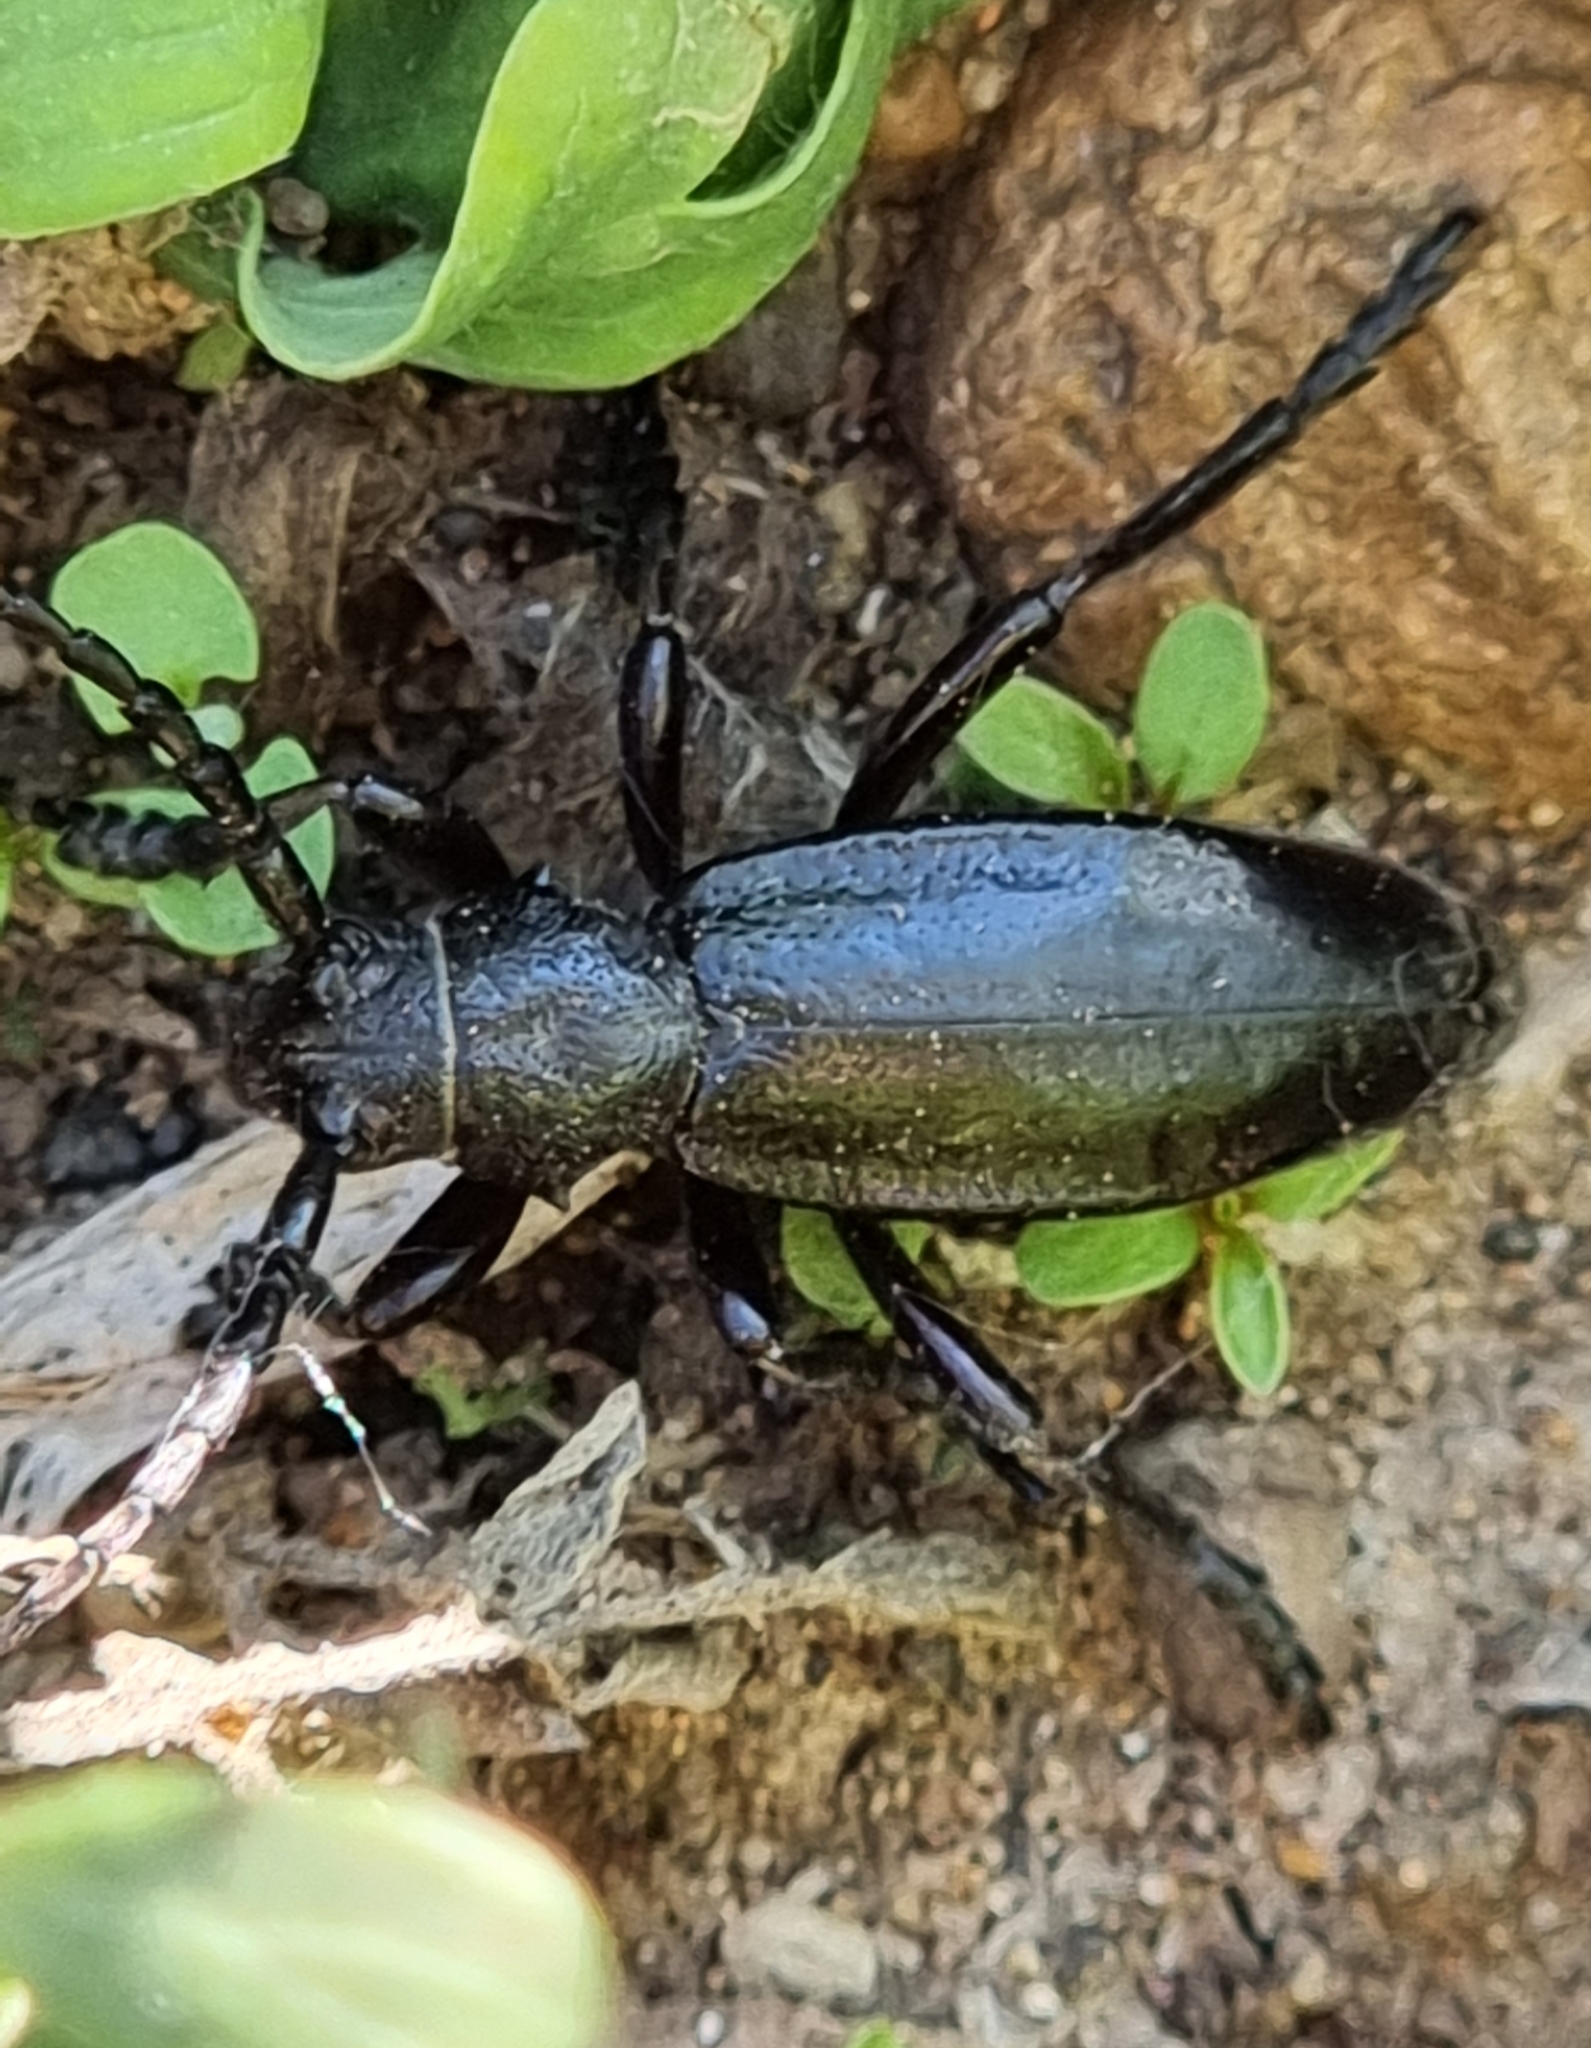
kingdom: Animalia
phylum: Arthropoda
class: Insecta
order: Coleoptera
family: Cerambycidae
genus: Dorcadion
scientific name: Dorcadion carinatum
